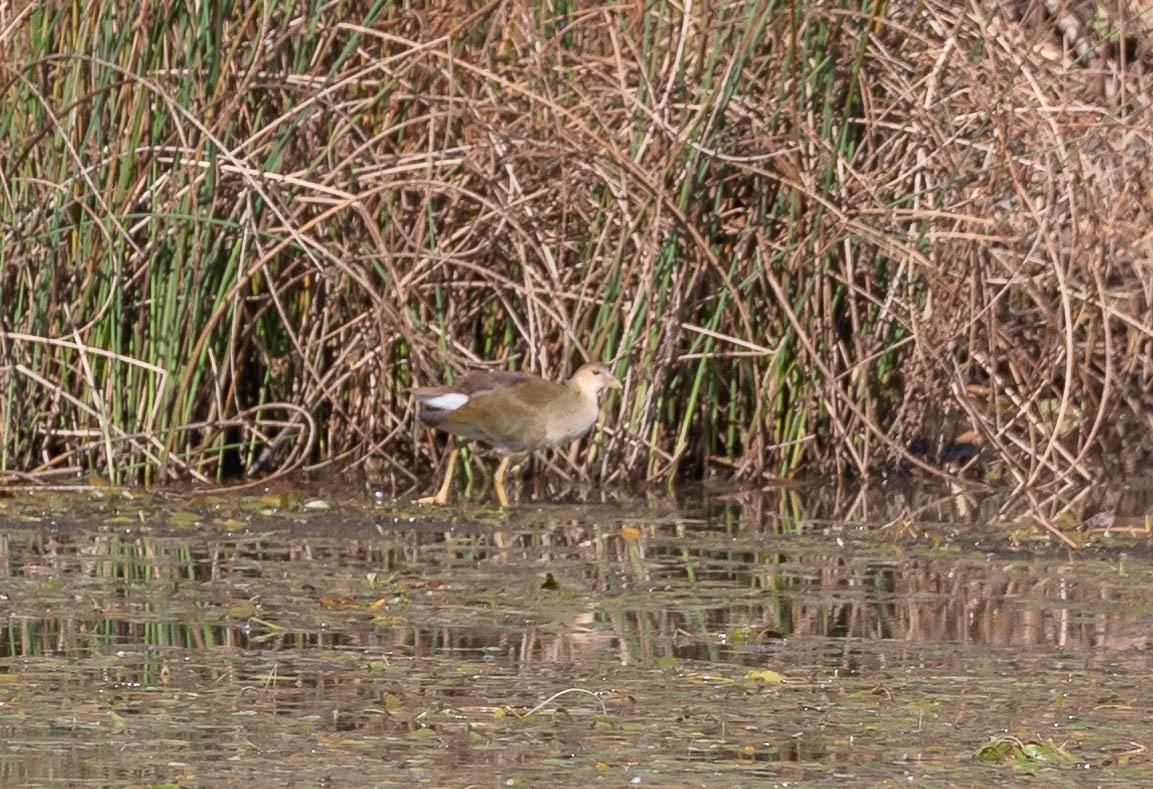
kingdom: Animalia
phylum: Chordata
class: Aves
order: Gruiformes
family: Rallidae
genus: Porphyrio
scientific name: Porphyrio martinica
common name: Purple gallinule
